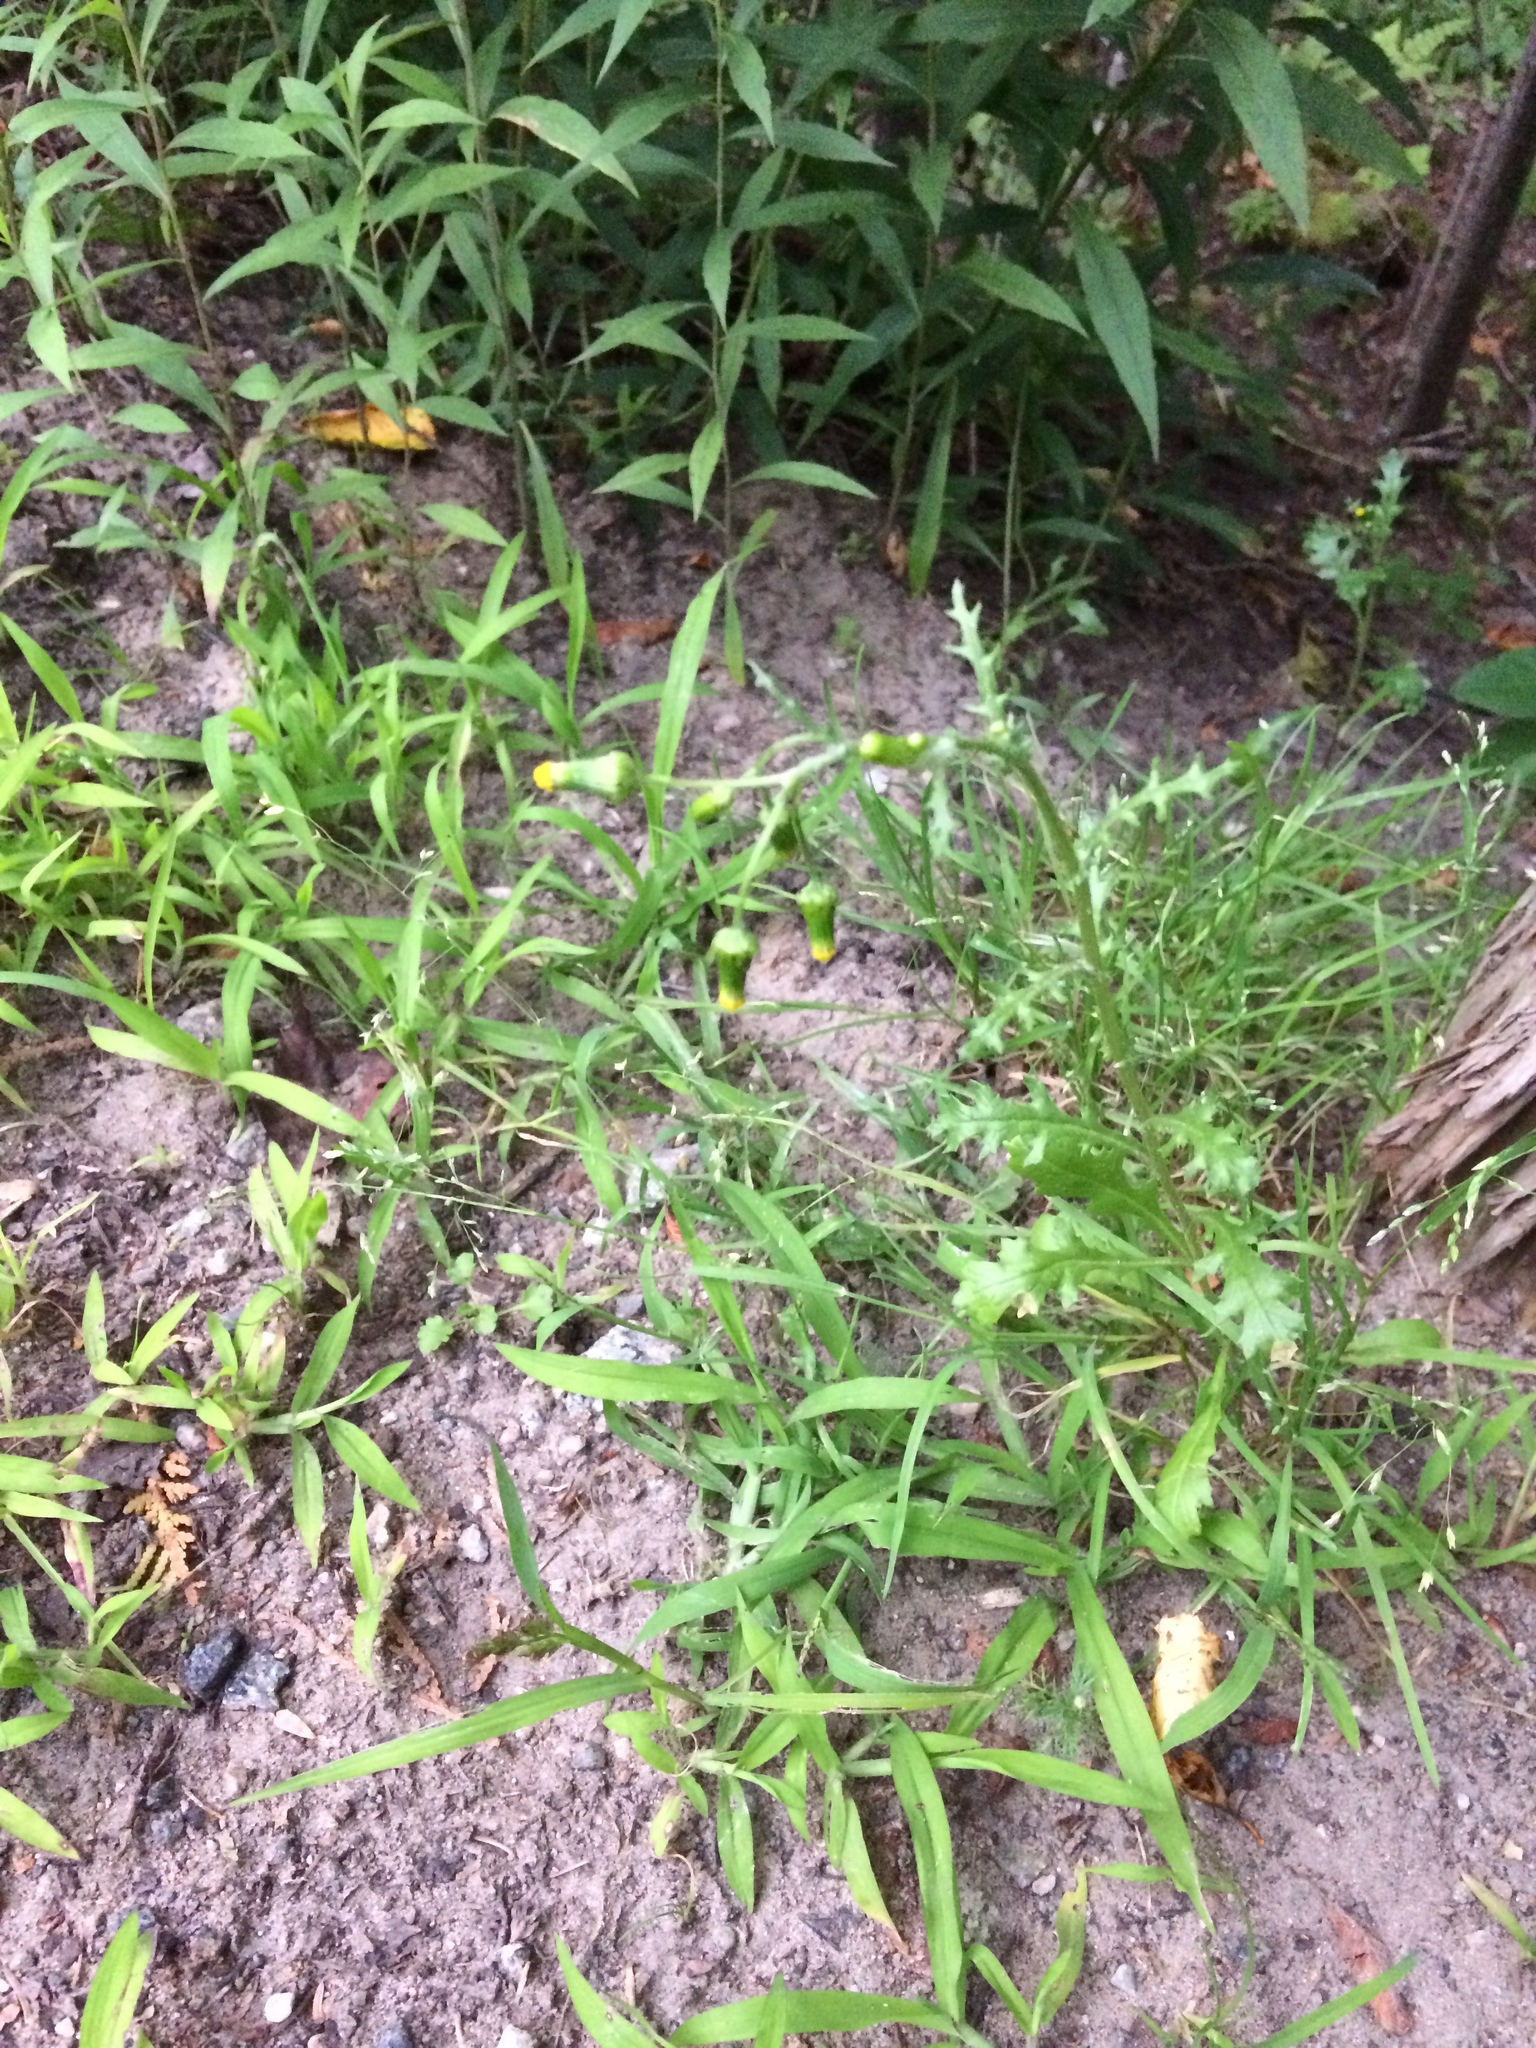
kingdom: Plantae
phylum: Tracheophyta
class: Magnoliopsida
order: Asterales
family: Asteraceae
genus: Senecio
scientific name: Senecio vulgaris
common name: Old-man-in-the-spring
